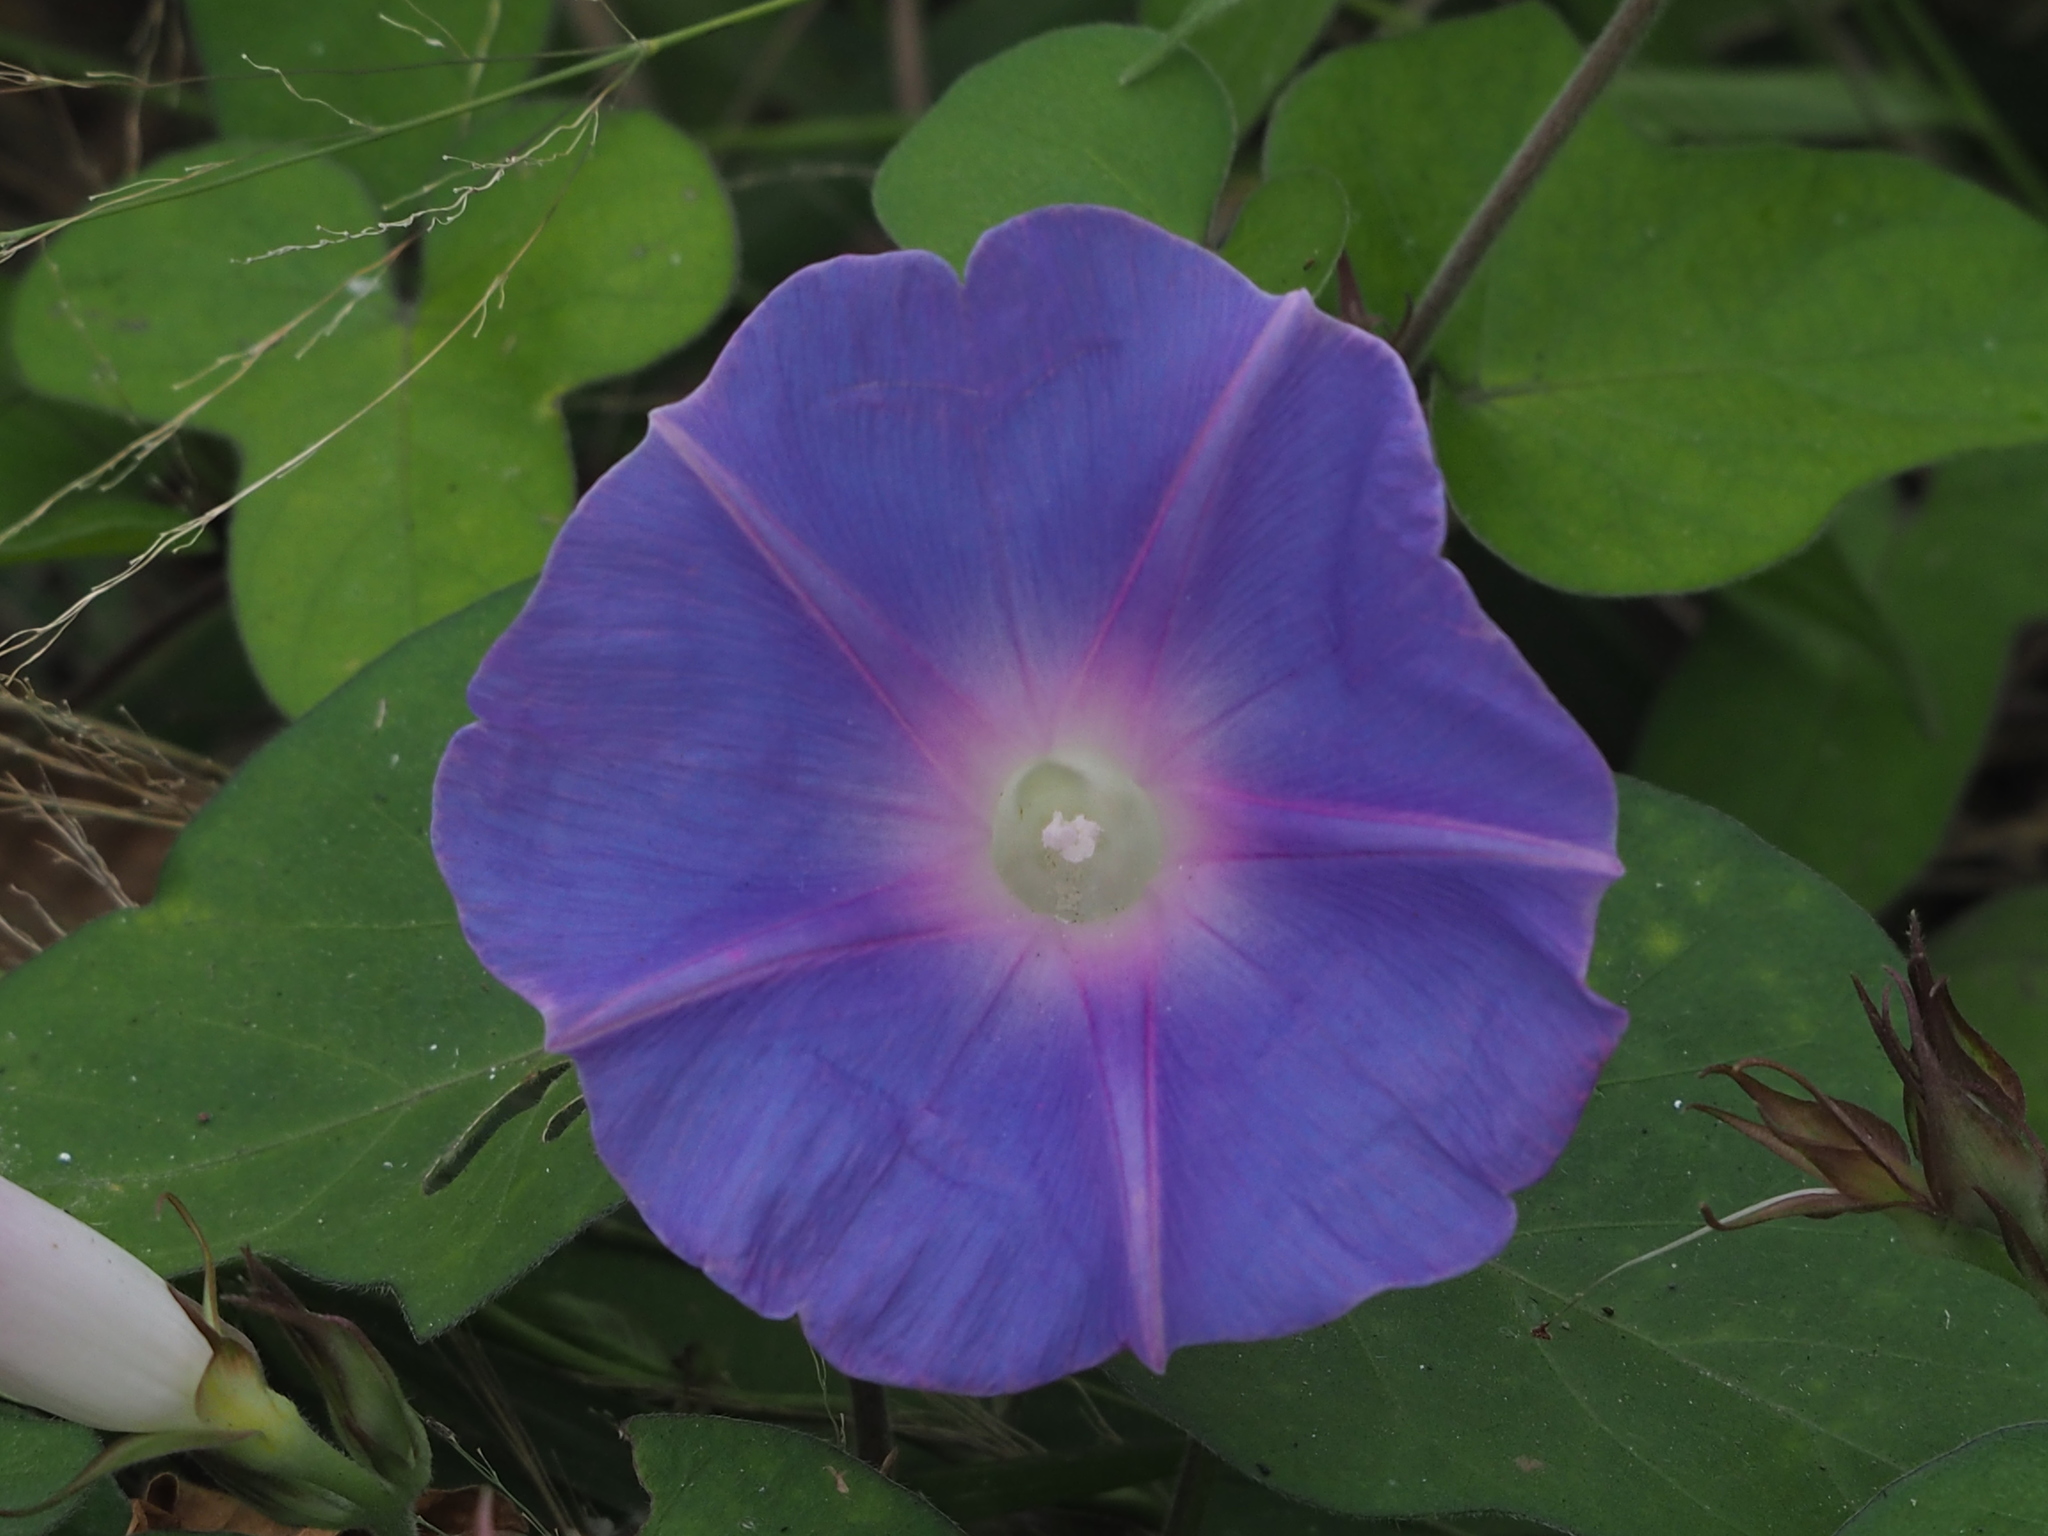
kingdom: Plantae
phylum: Tracheophyta
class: Magnoliopsida
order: Solanales
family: Convolvulaceae
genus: Ipomoea
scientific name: Ipomoea indica
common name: Blue dawnflower
